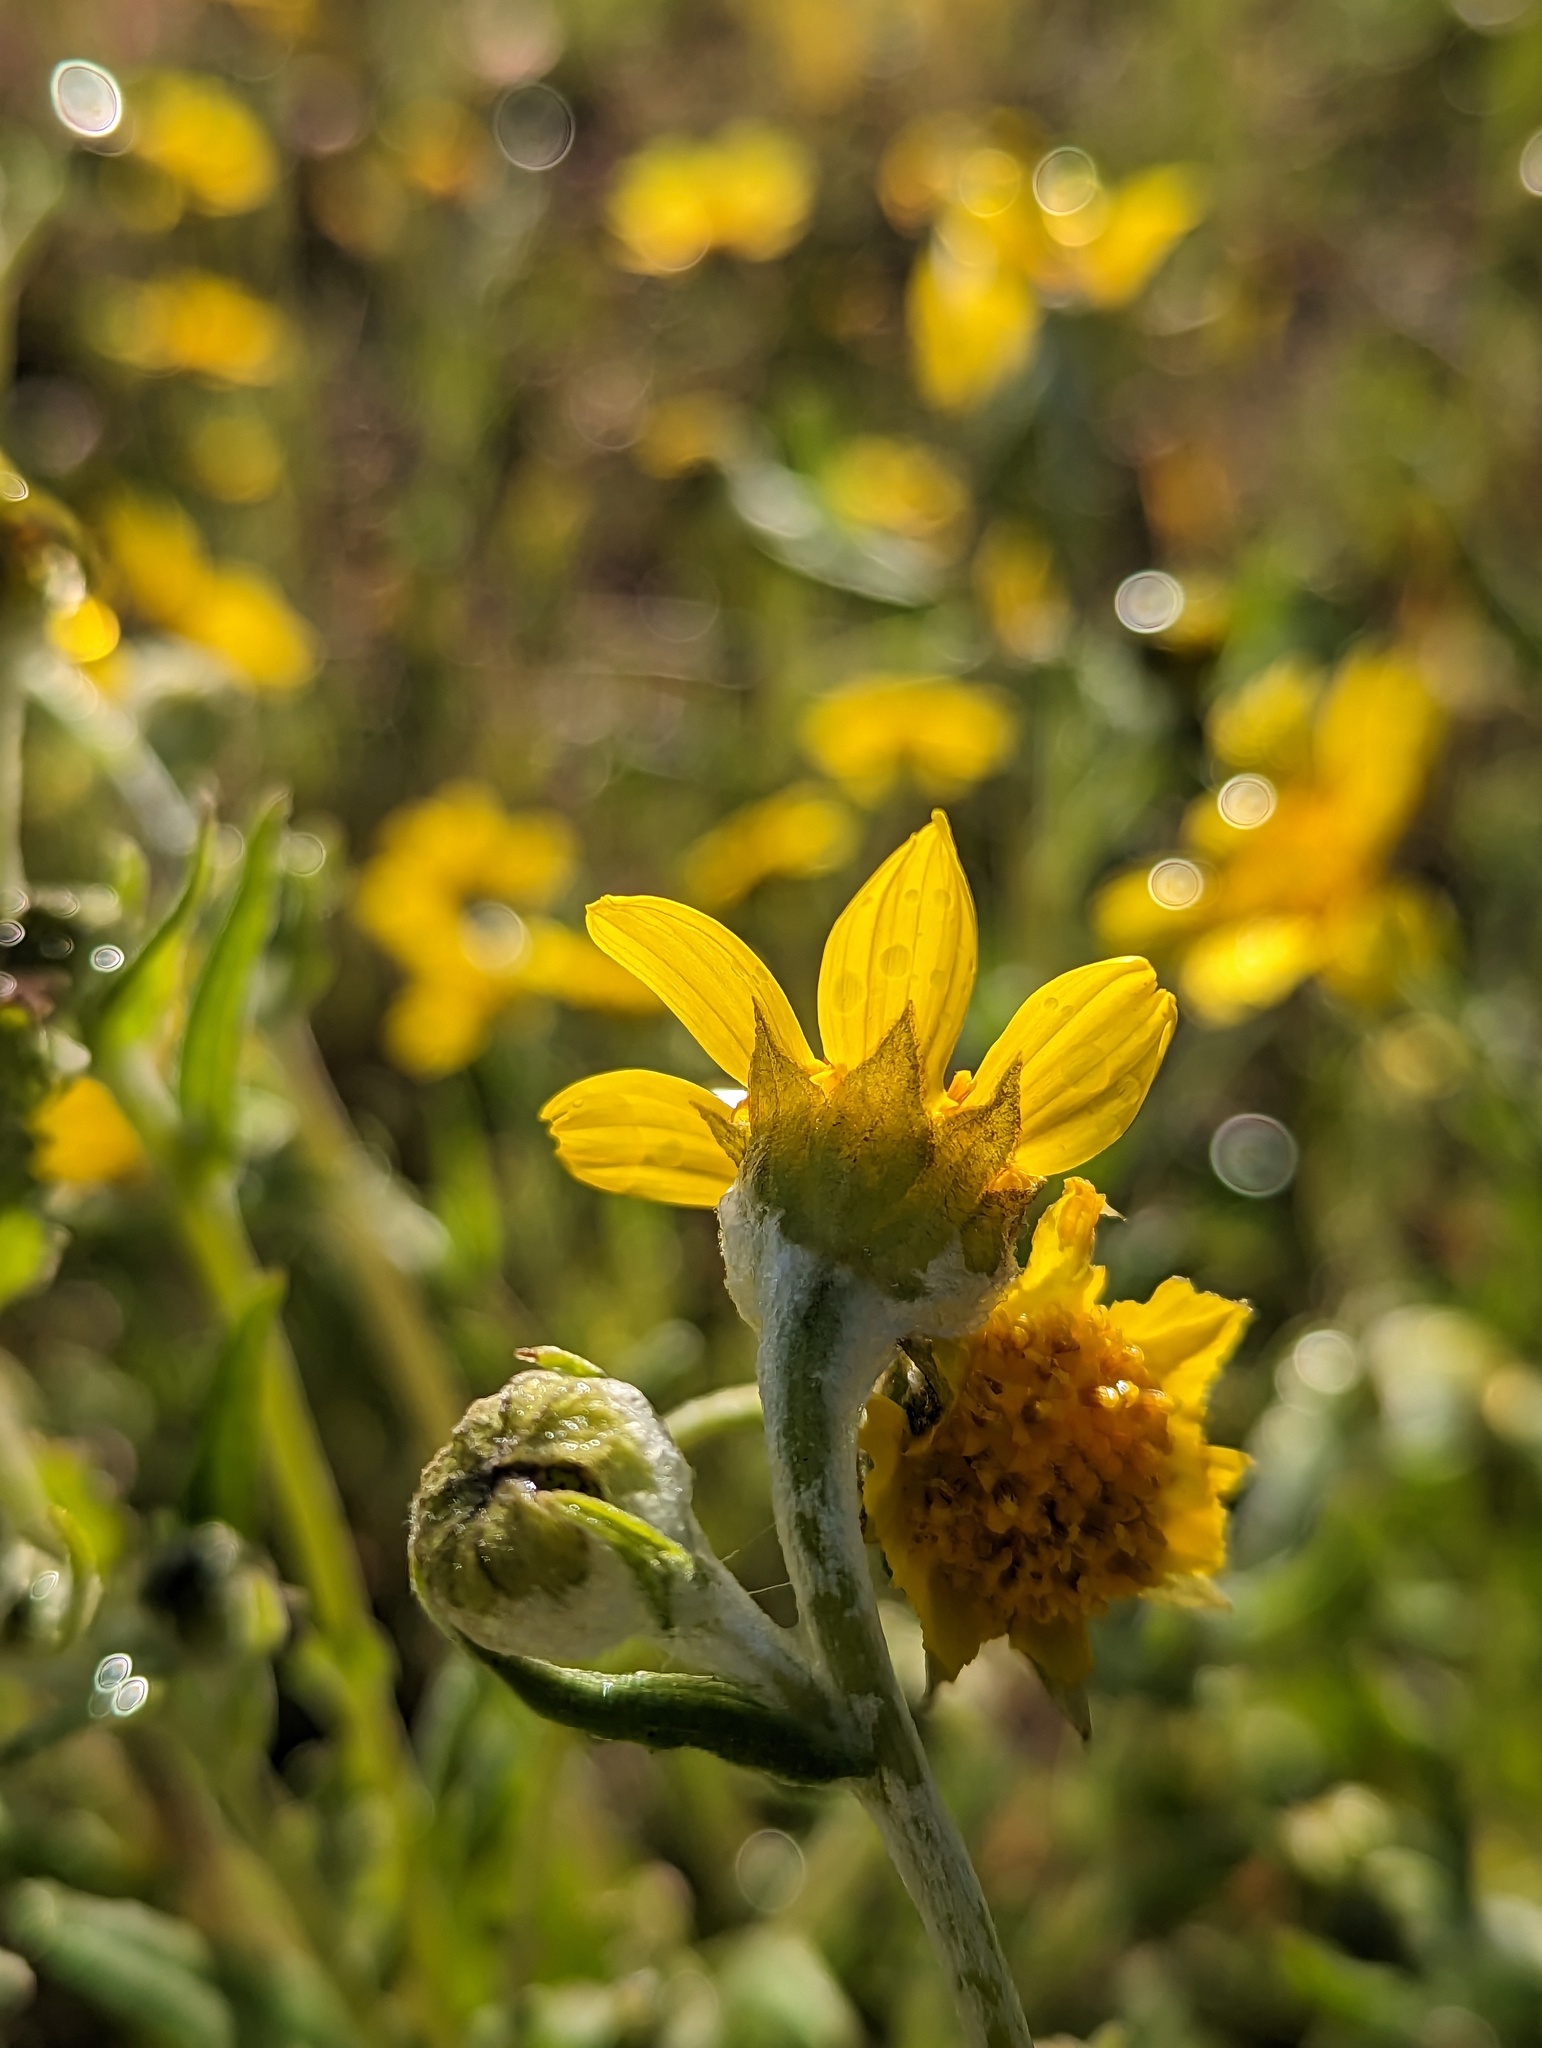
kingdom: Plantae
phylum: Tracheophyta
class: Magnoliopsida
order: Asterales
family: Asteraceae
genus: Monolopia
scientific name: Monolopia lanceolata
